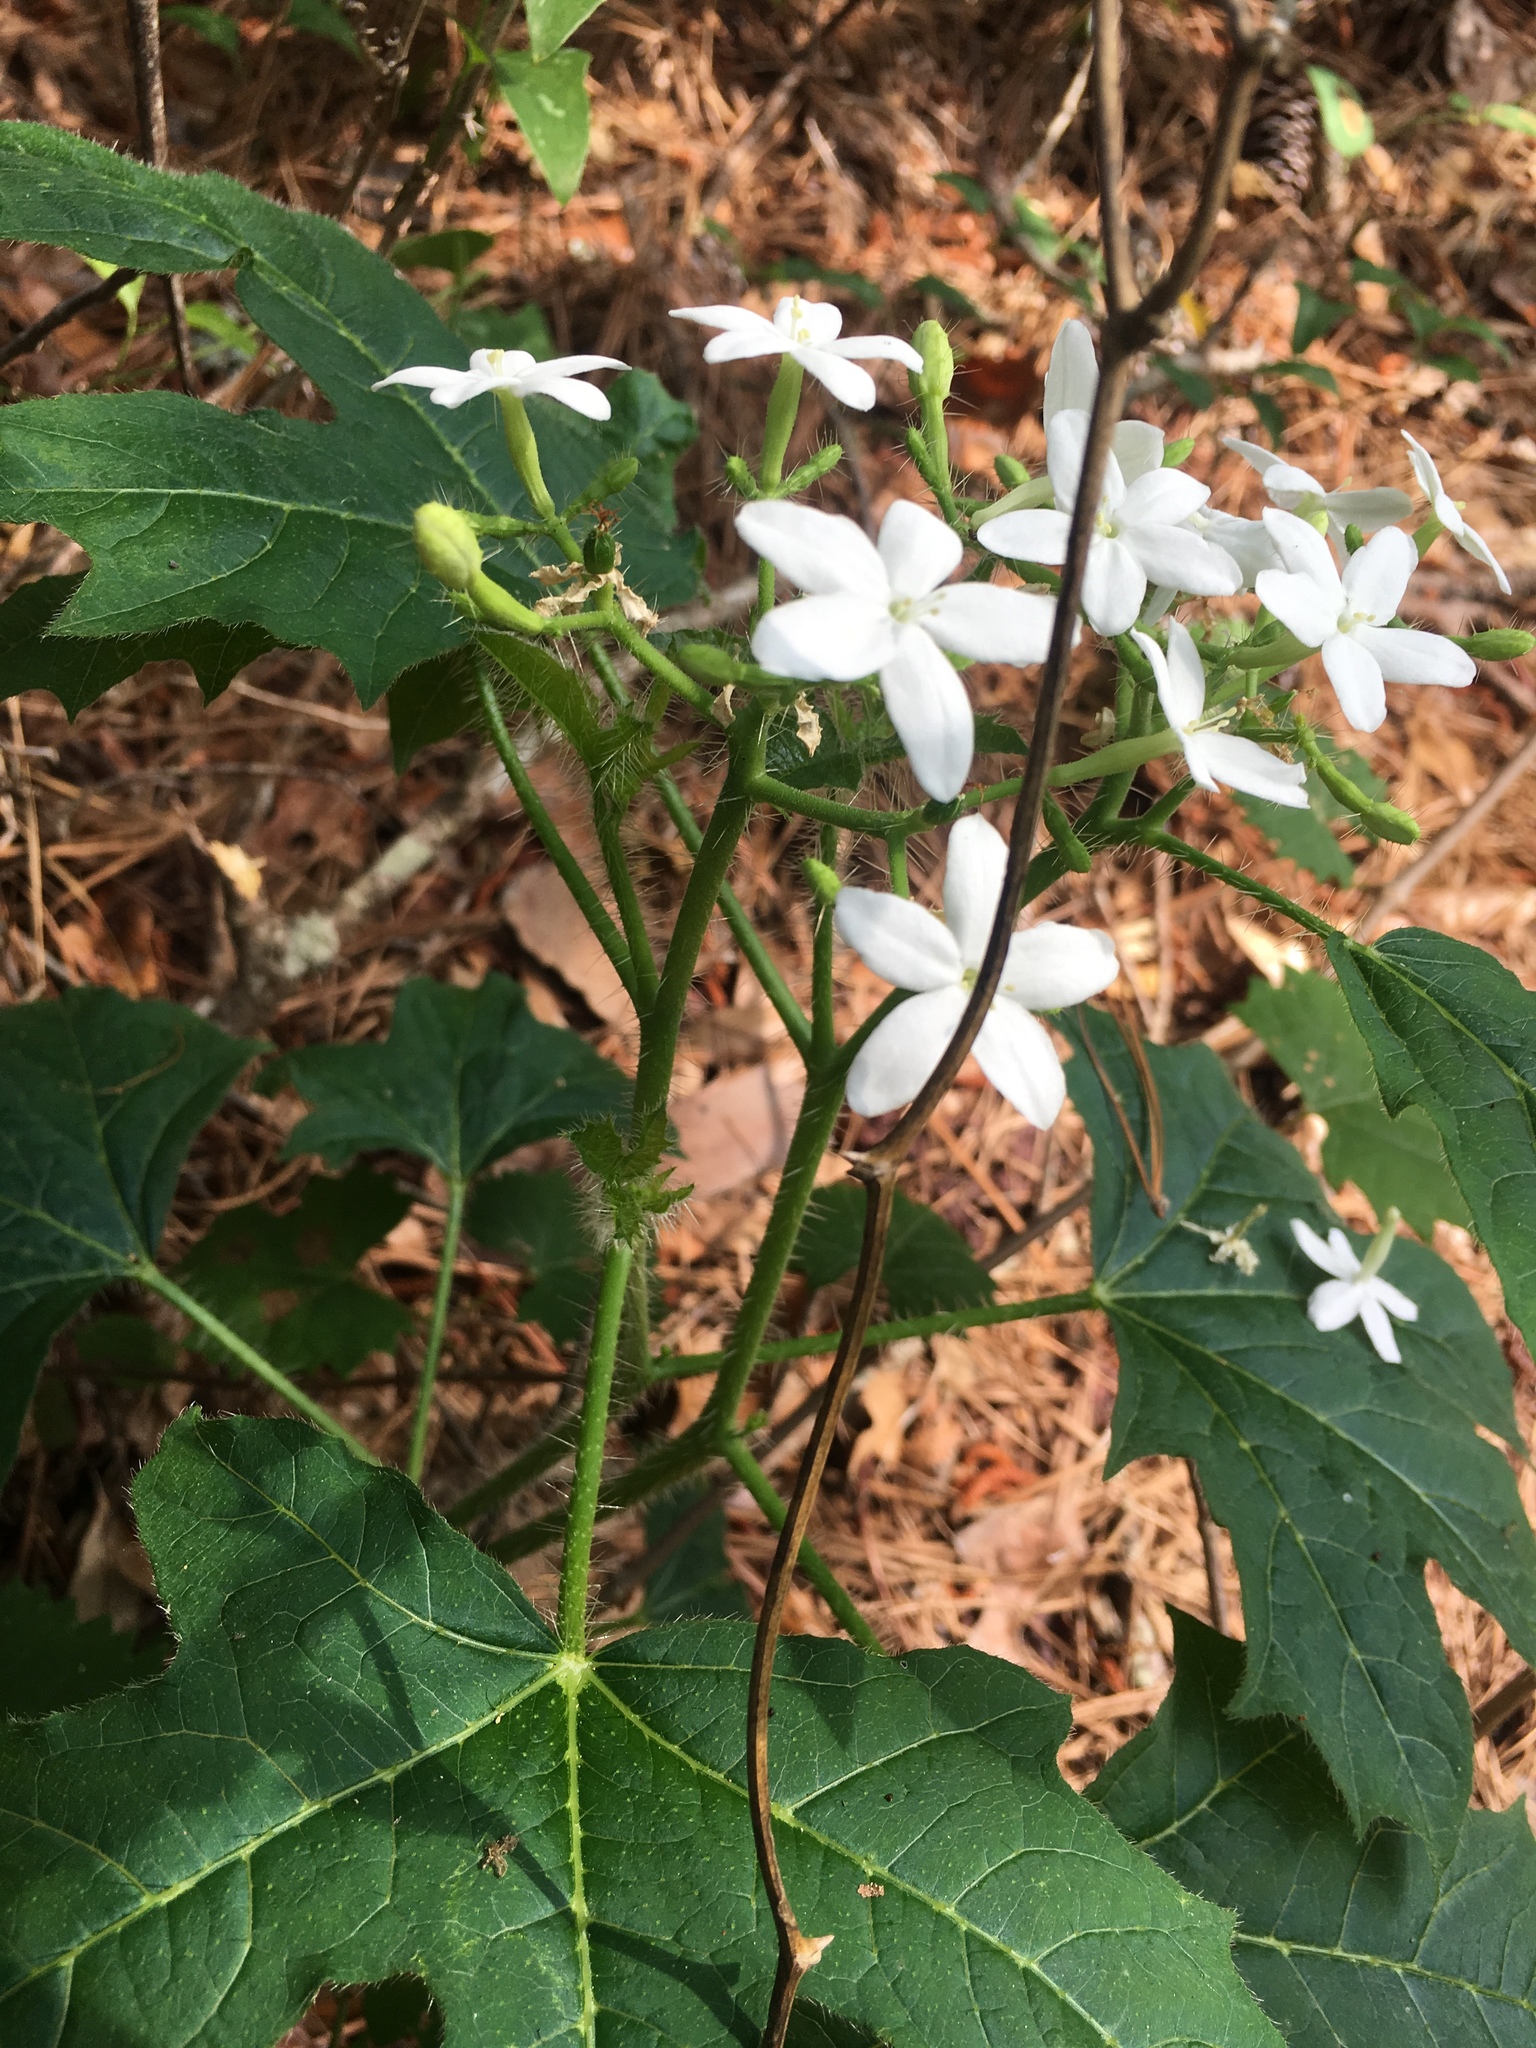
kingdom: Plantae
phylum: Tracheophyta
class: Magnoliopsida
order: Malpighiales
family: Euphorbiaceae
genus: Cnidoscolus
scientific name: Cnidoscolus stimulosus
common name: Bull-nettle
